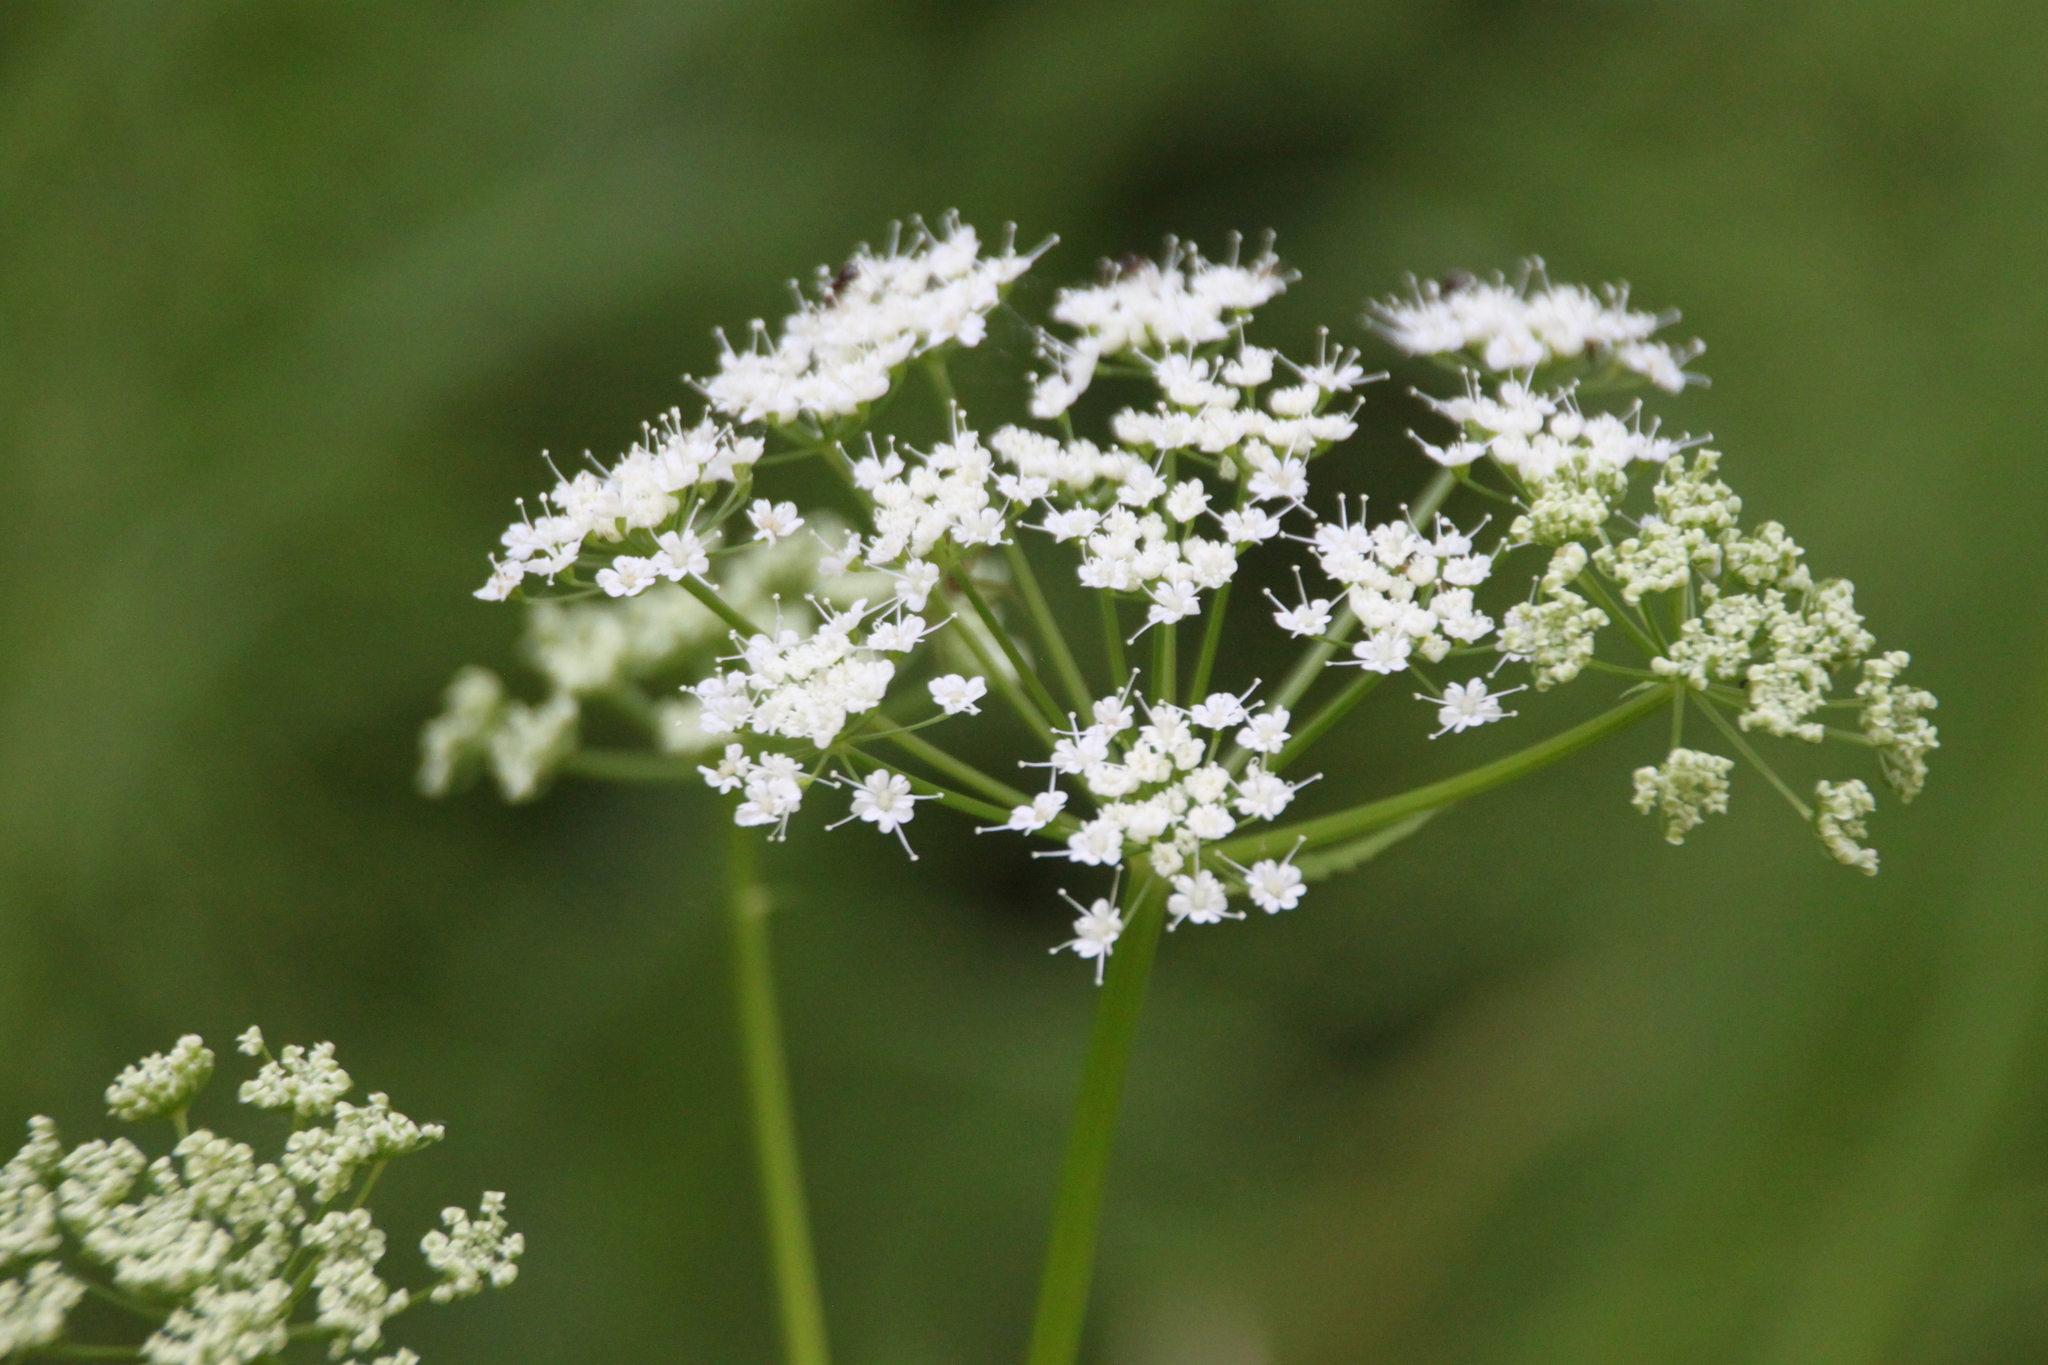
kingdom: Plantae
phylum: Tracheophyta
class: Magnoliopsida
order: Apiales
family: Apiaceae
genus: Aegopodium
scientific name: Aegopodium podagraria
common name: Ground-elder
